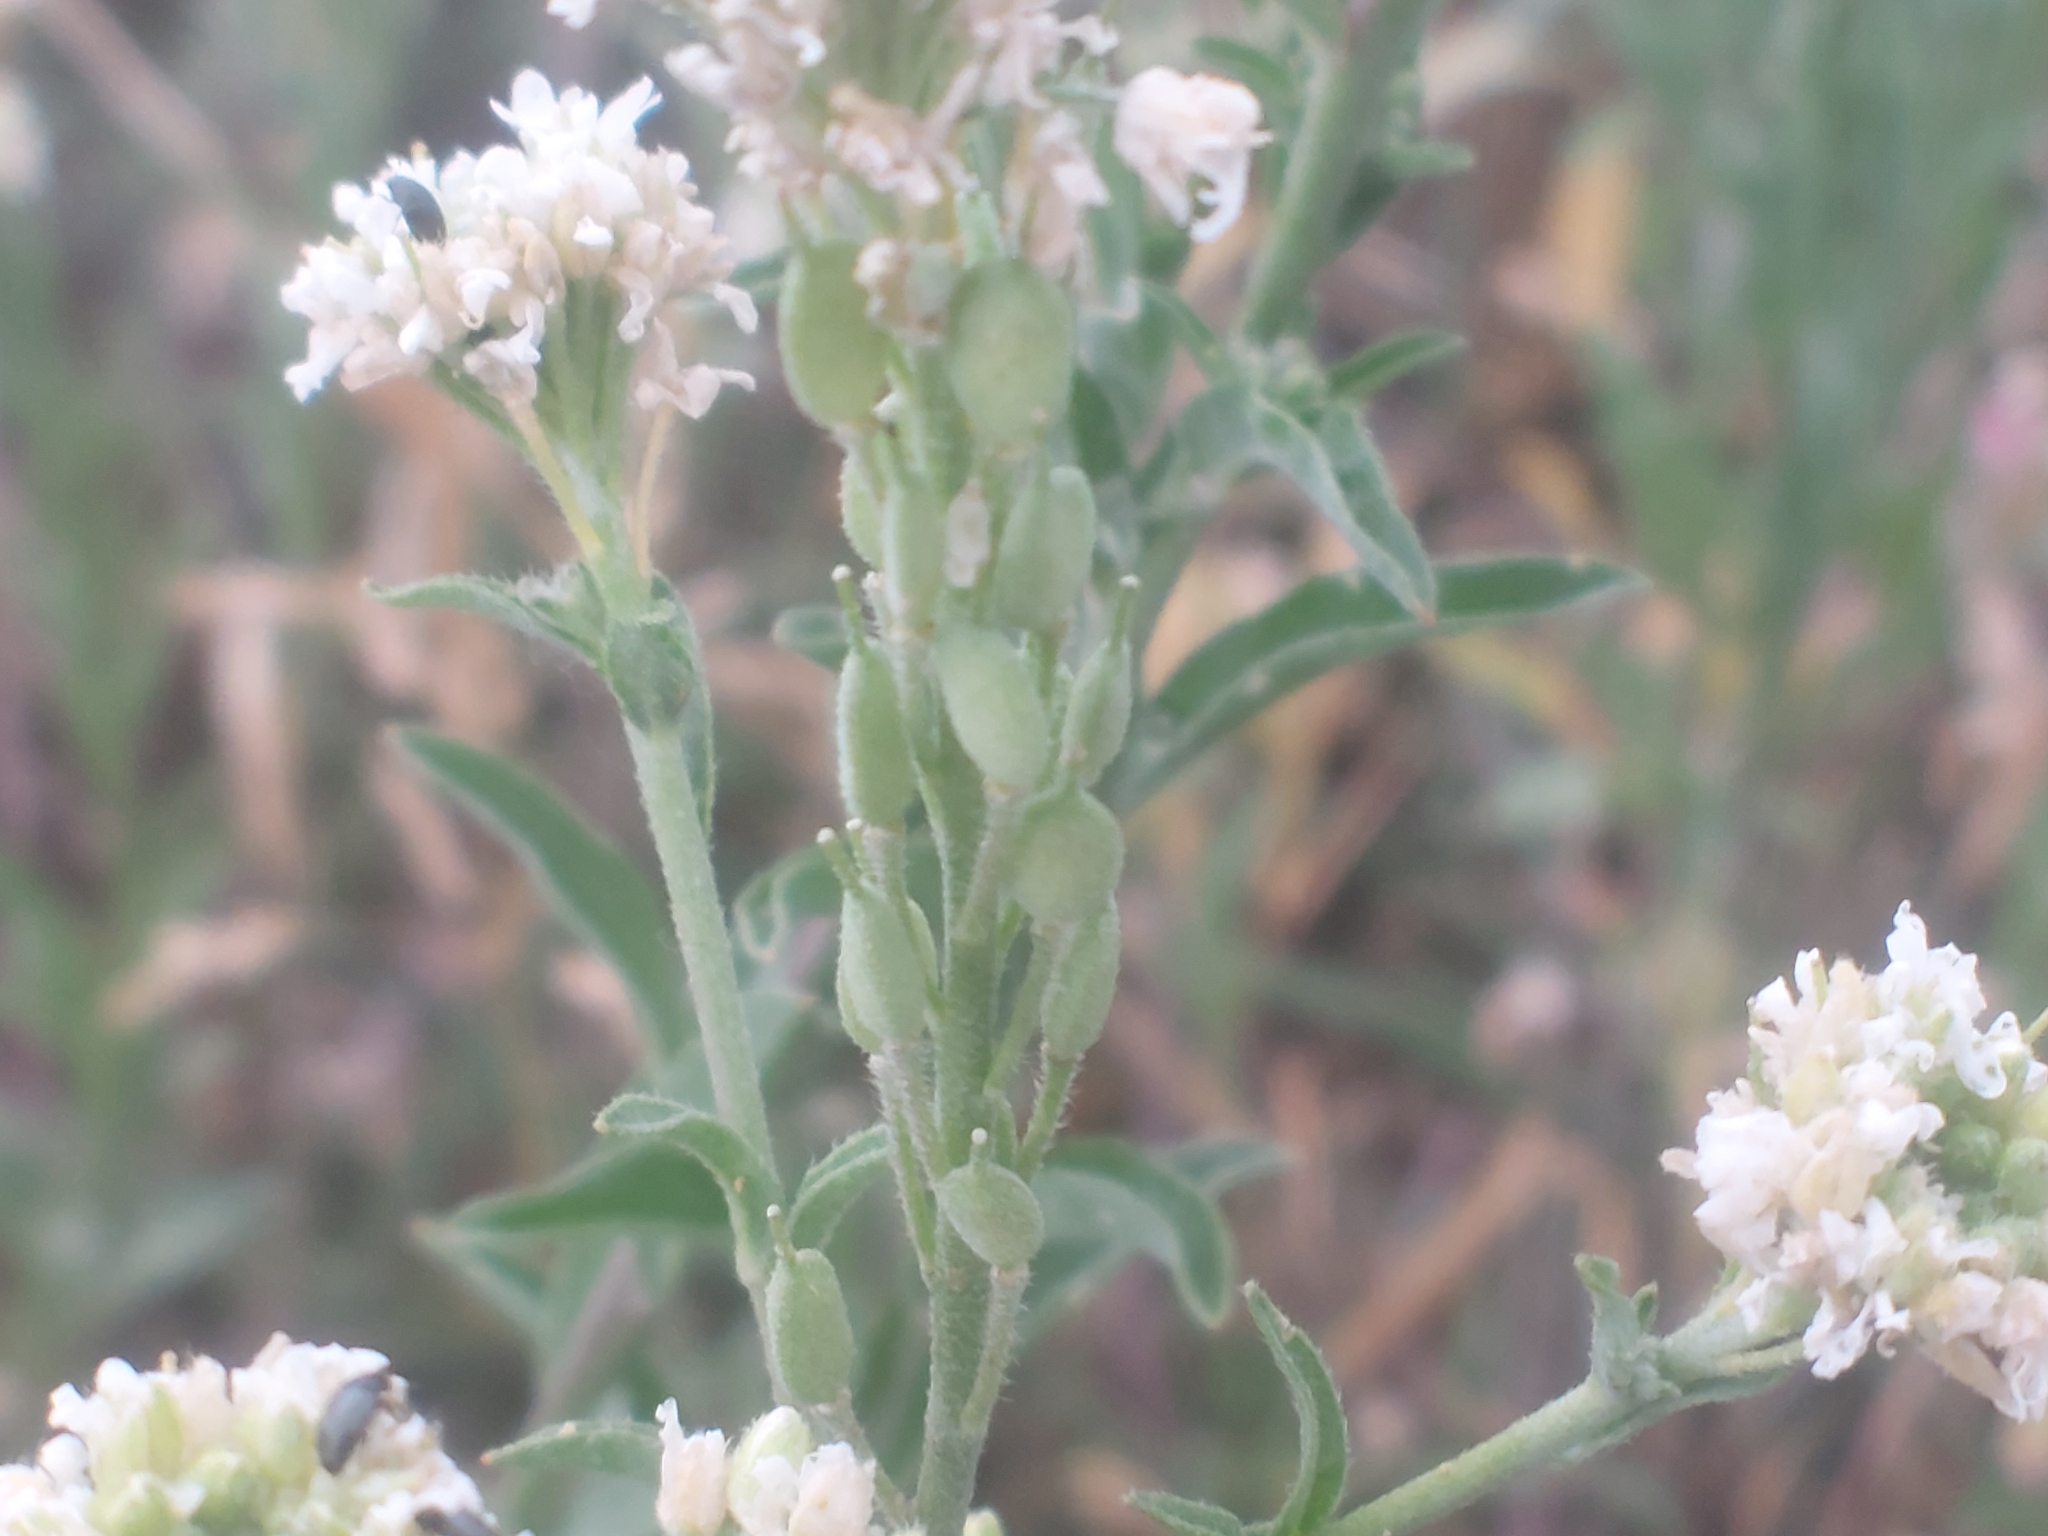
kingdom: Plantae
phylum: Tracheophyta
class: Magnoliopsida
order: Brassicales
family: Brassicaceae
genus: Berteroa
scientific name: Berteroa incana
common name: Hoary alison
